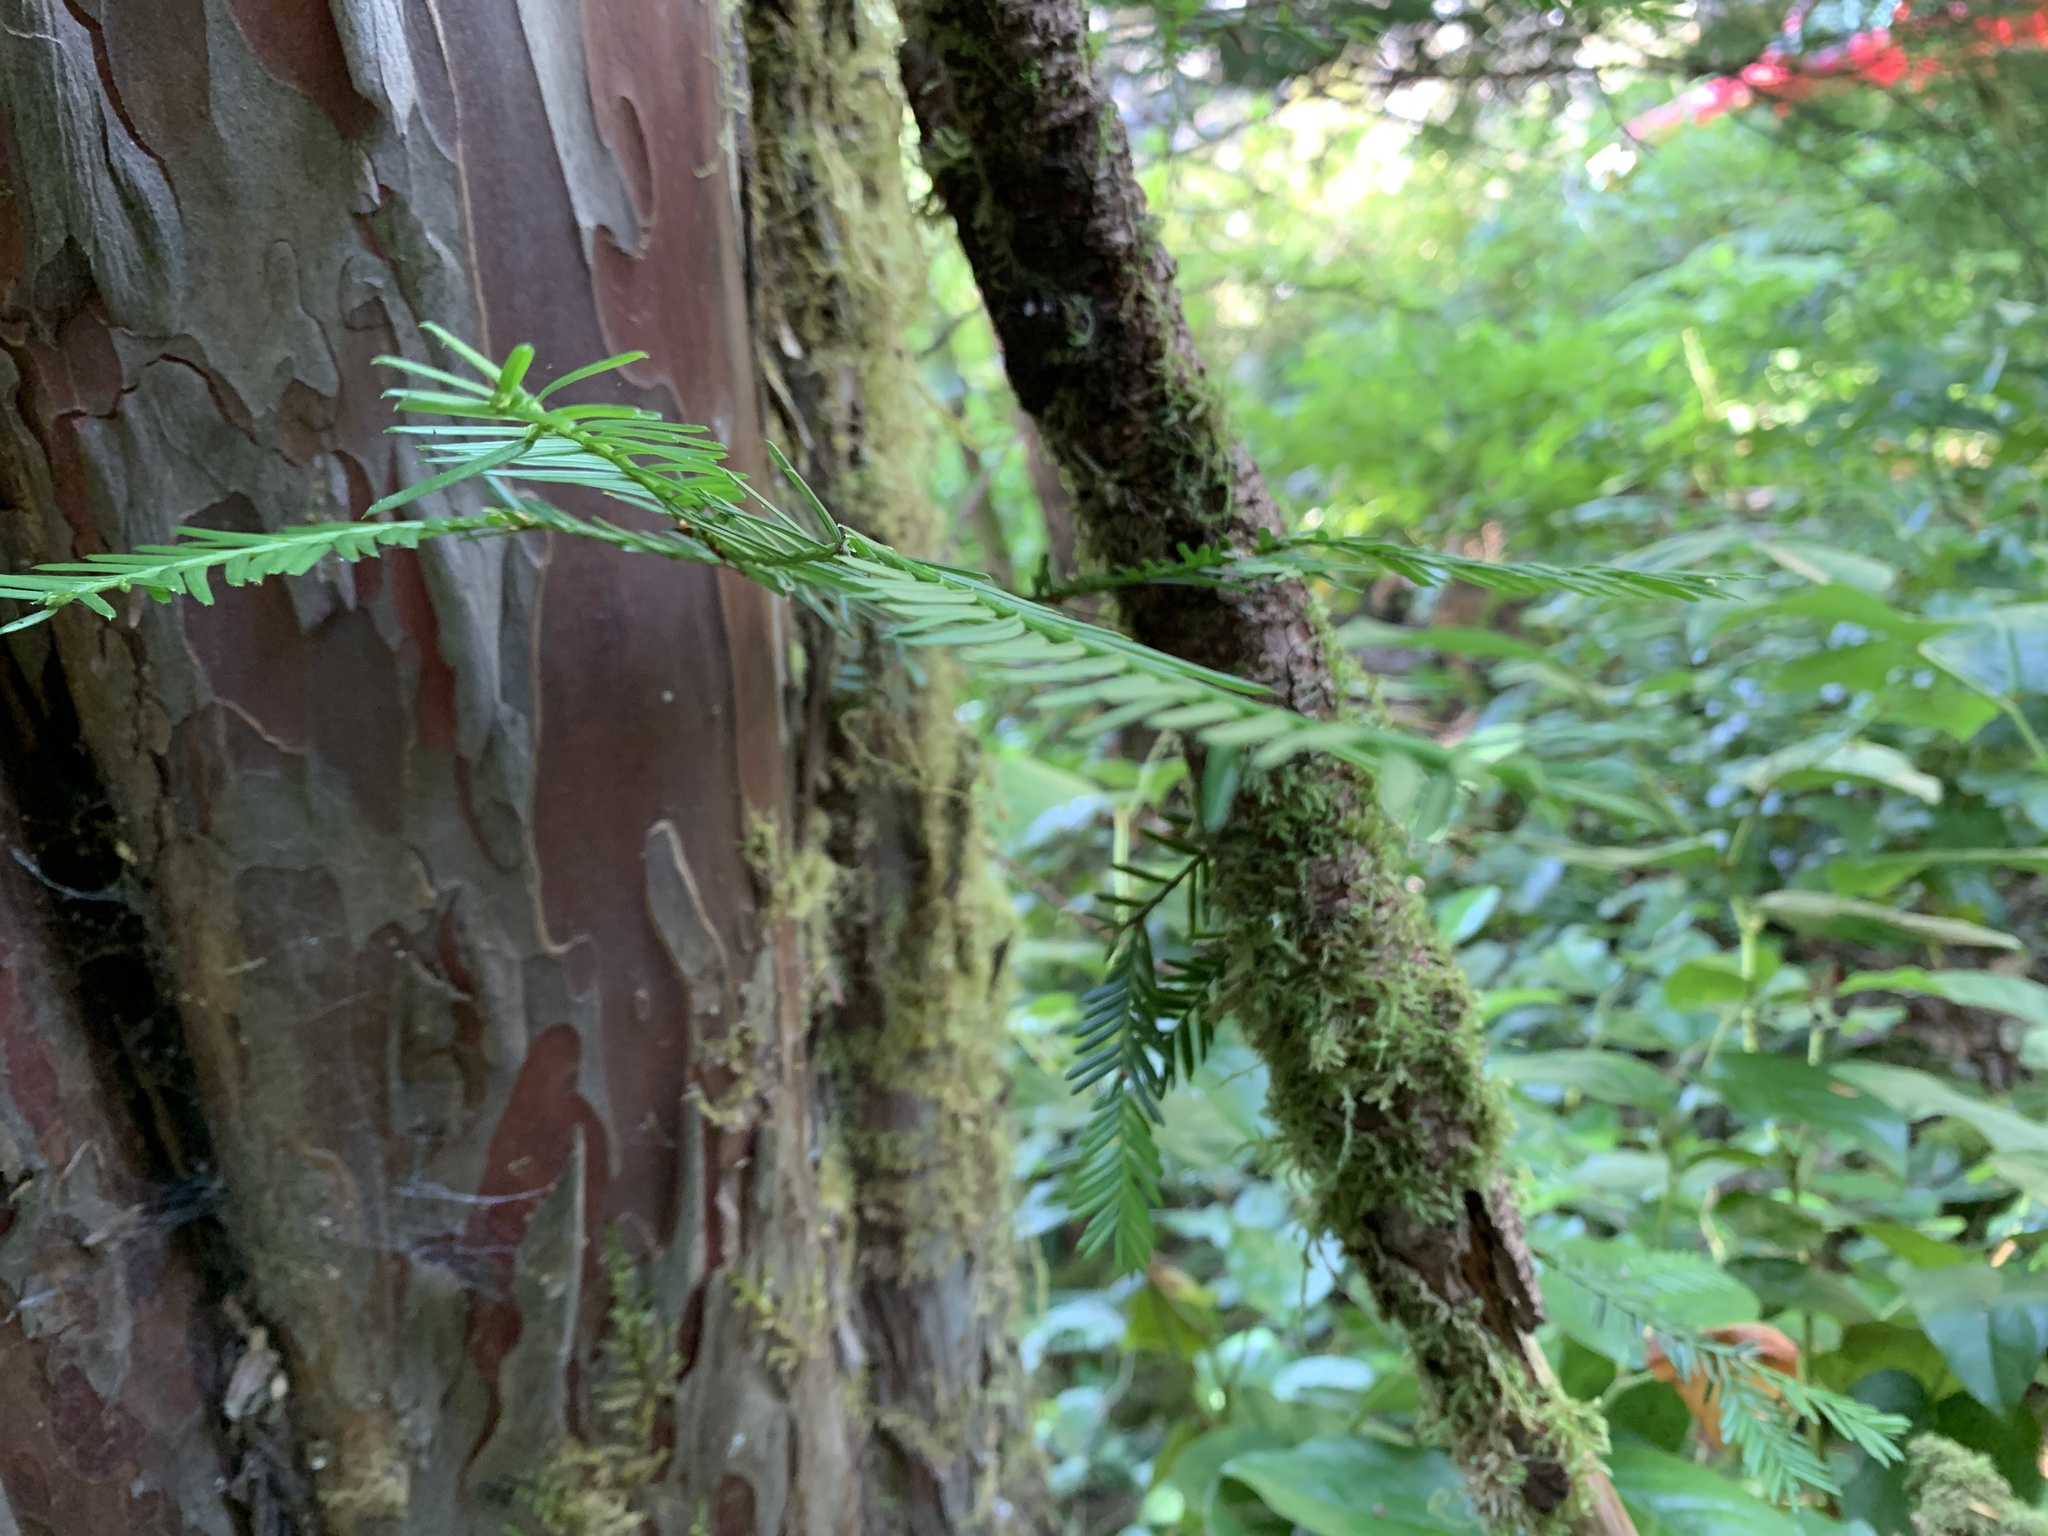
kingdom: Plantae
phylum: Tracheophyta
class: Pinopsida
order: Pinales
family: Taxaceae
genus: Taxus
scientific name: Taxus brevifolia
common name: Pacific yew
